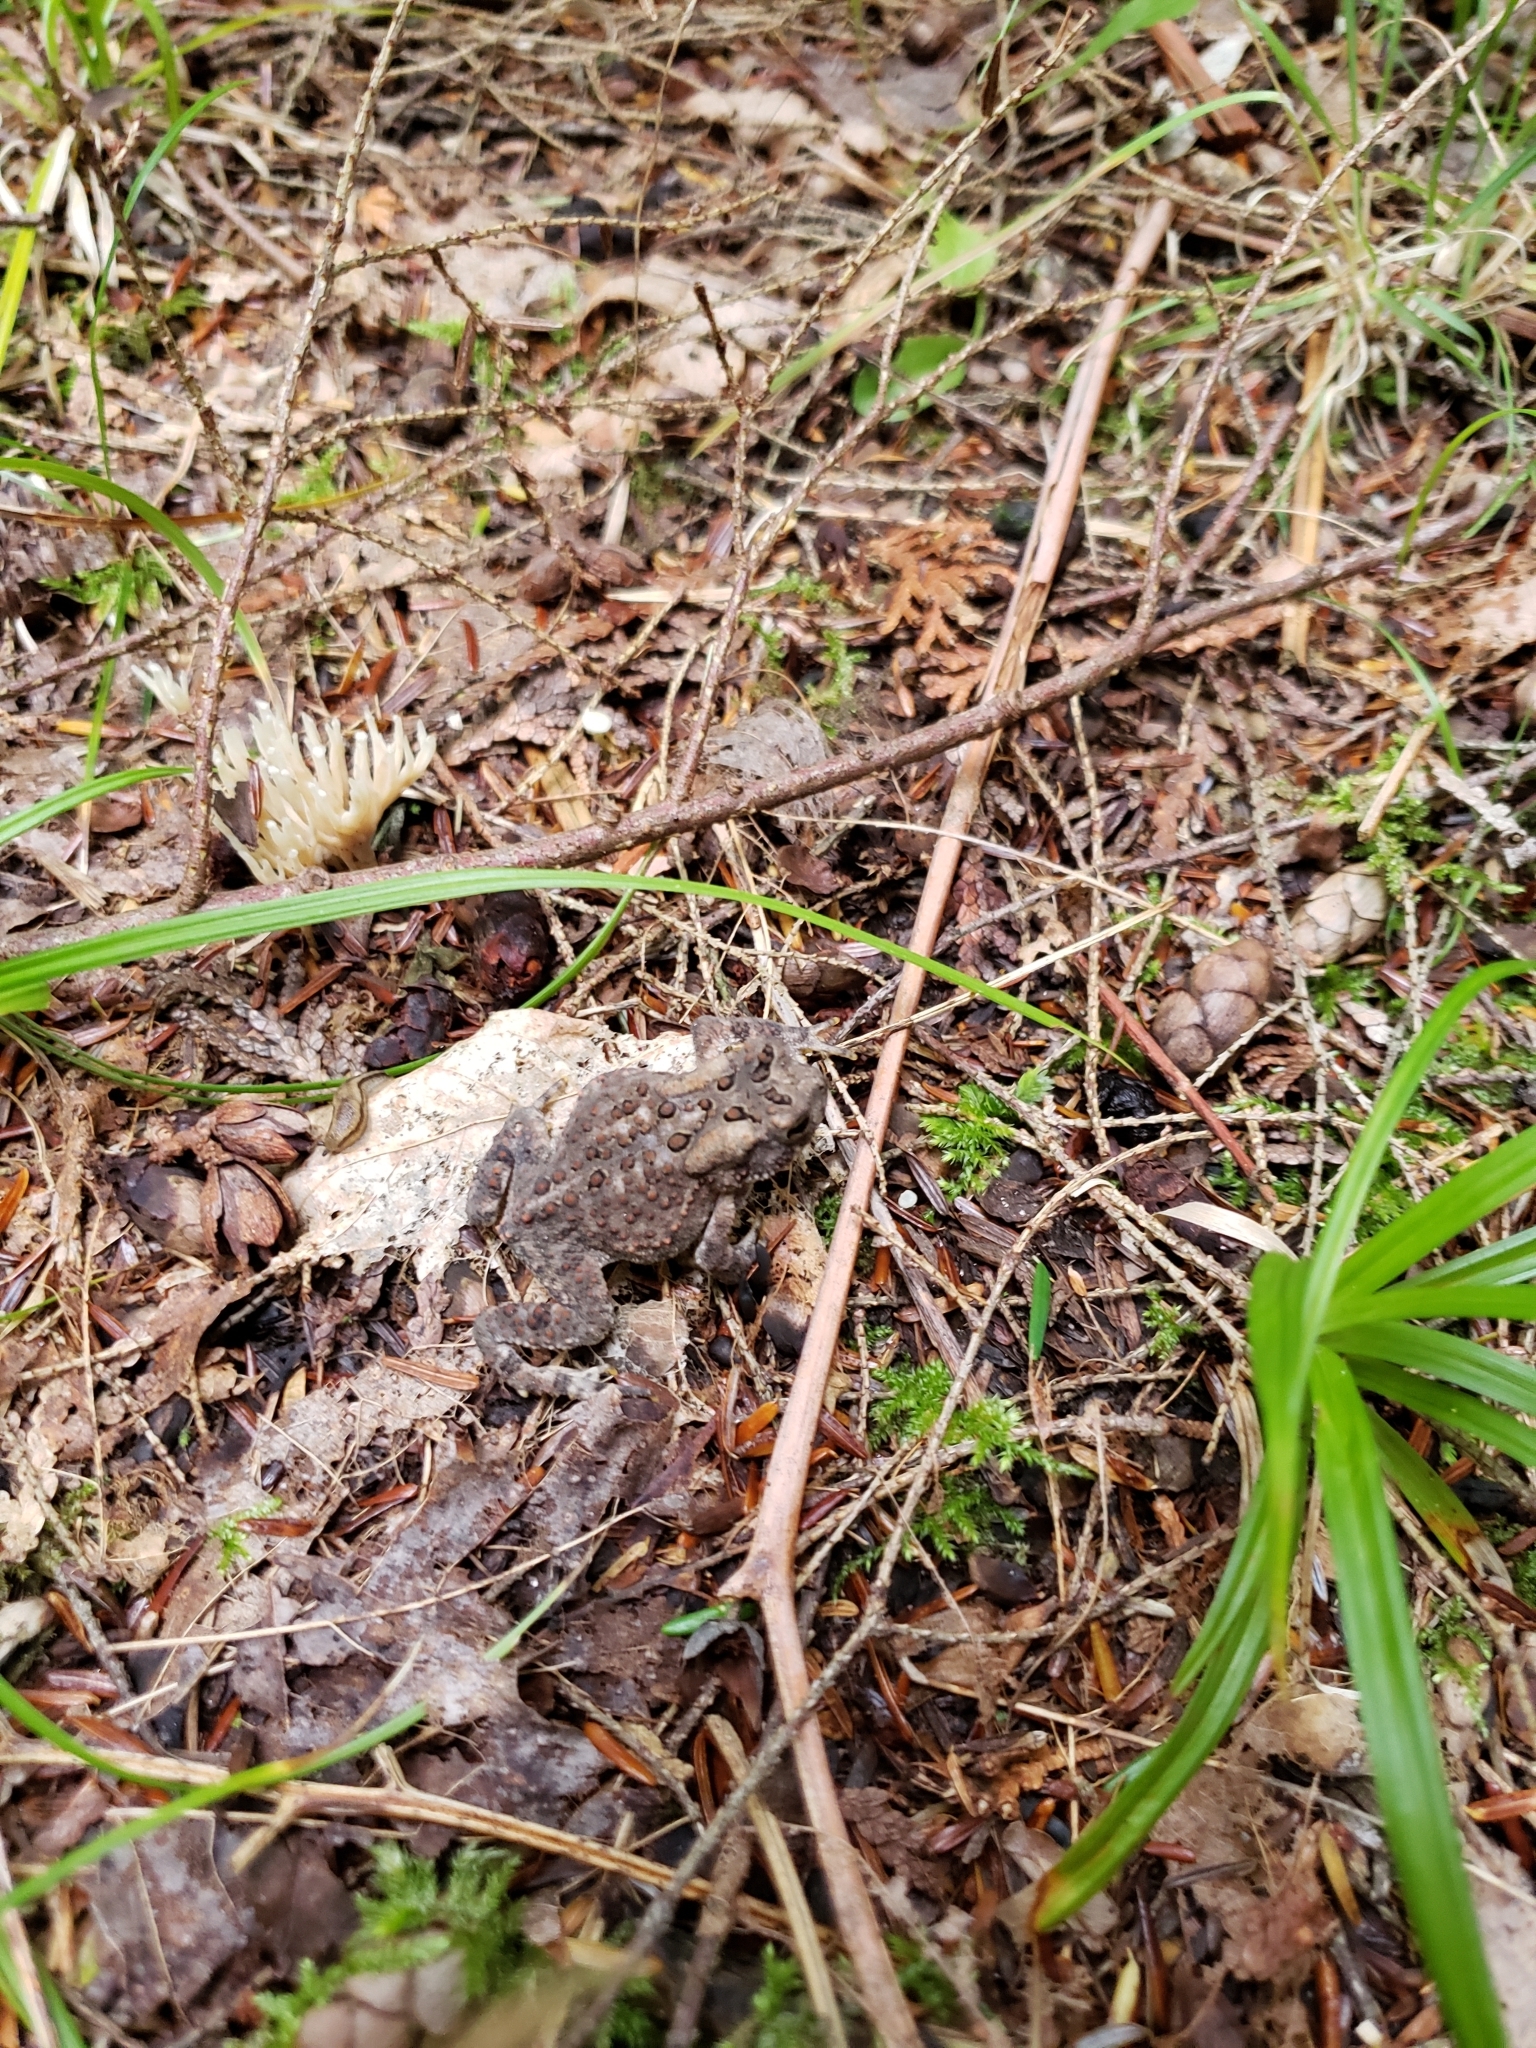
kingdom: Animalia
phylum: Chordata
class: Amphibia
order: Anura
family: Bufonidae
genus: Anaxyrus
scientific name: Anaxyrus americanus
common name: American toad
